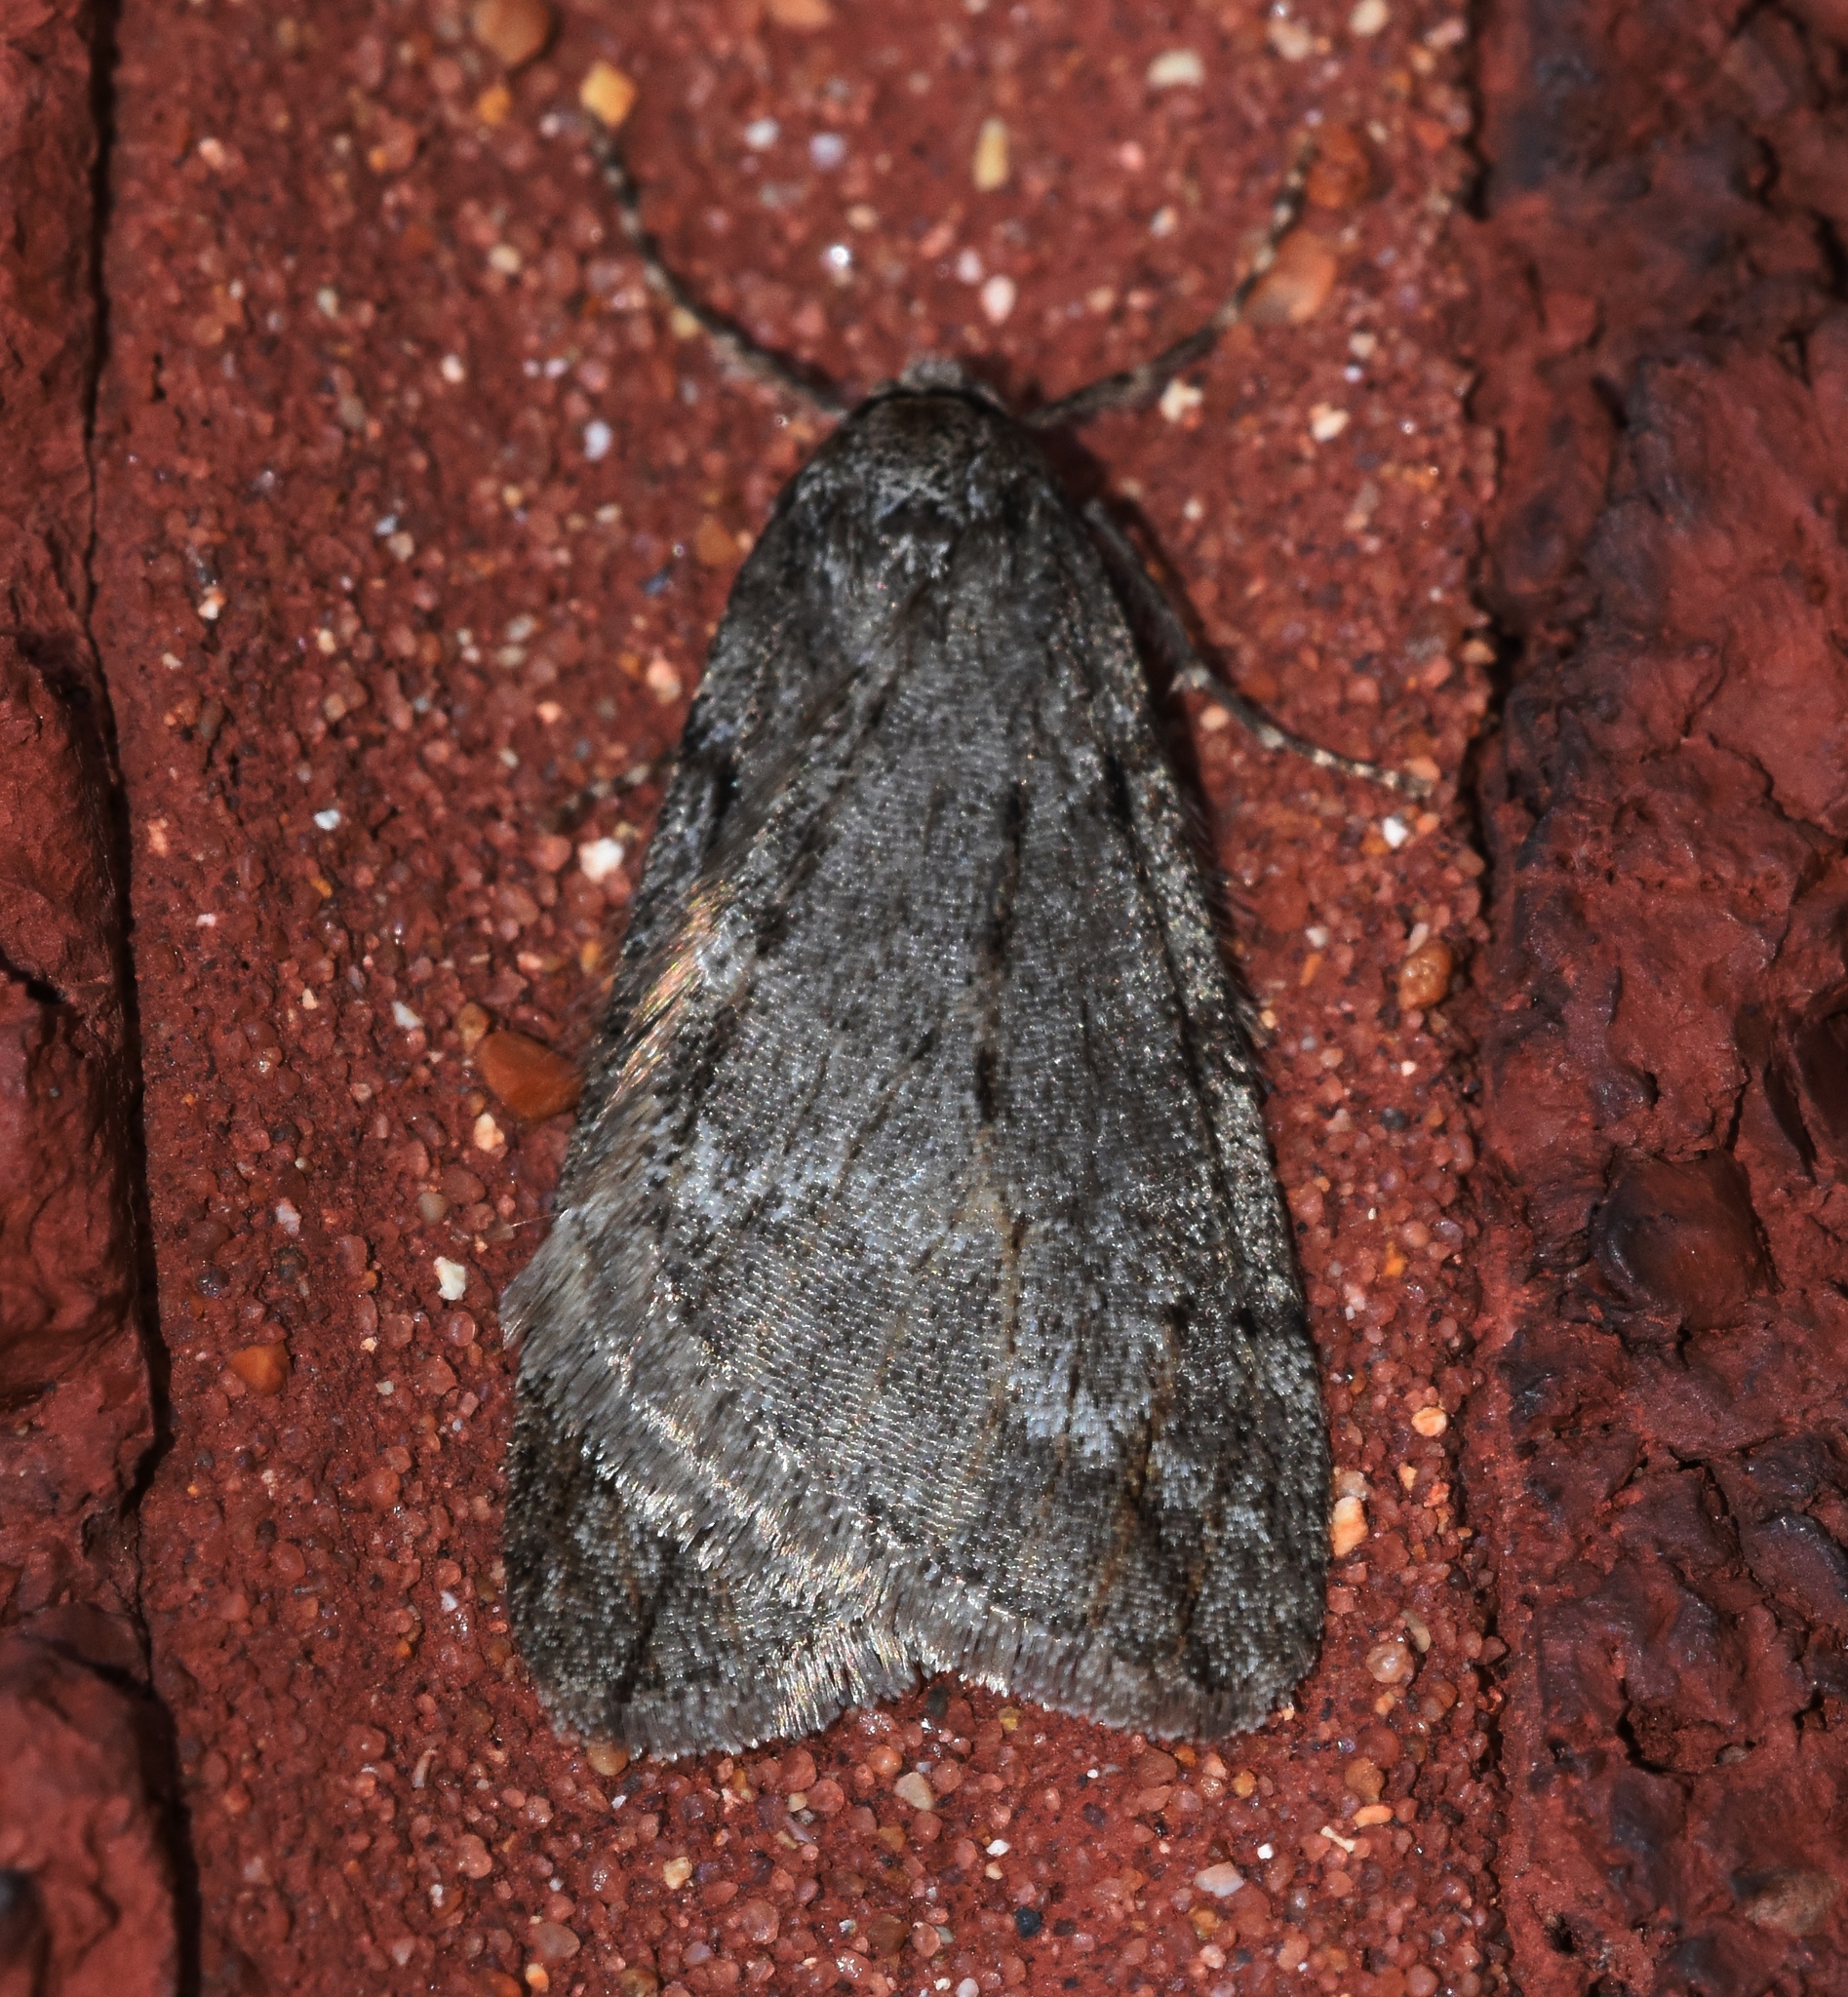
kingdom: Animalia
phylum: Arthropoda
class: Insecta
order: Lepidoptera
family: Geometridae
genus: Paleacrita
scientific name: Paleacrita vernata
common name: Spring cankerworm
